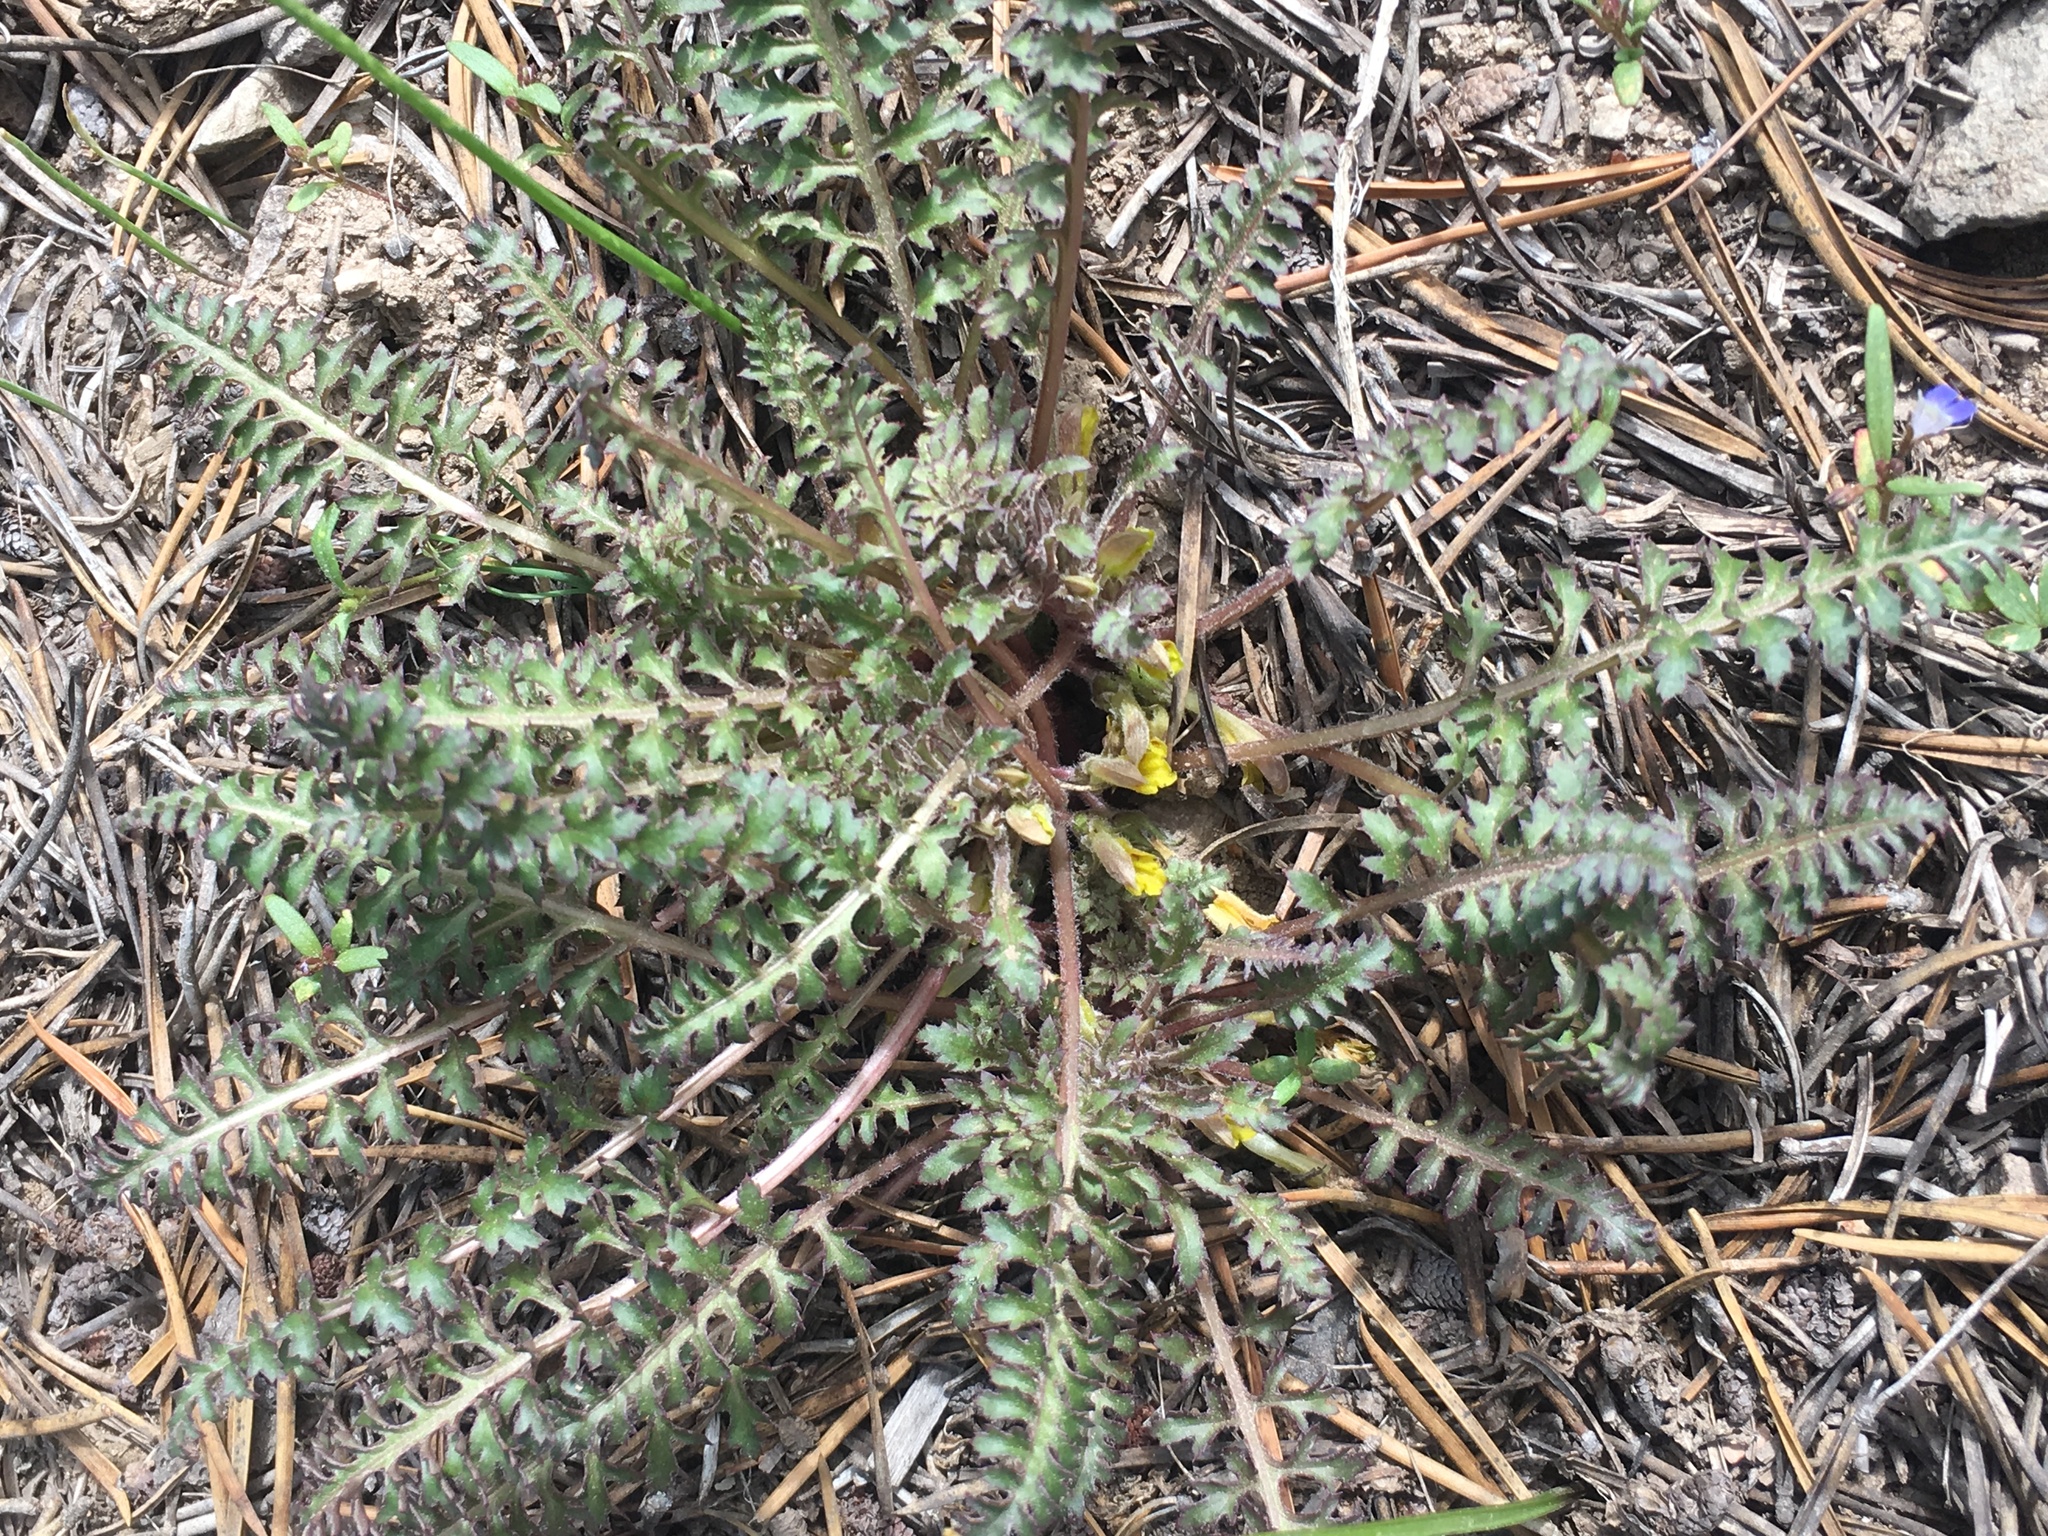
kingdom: Plantae
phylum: Tracheophyta
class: Magnoliopsida
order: Lamiales
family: Orobanchaceae
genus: Pedicularis
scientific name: Pedicularis semibarbata
